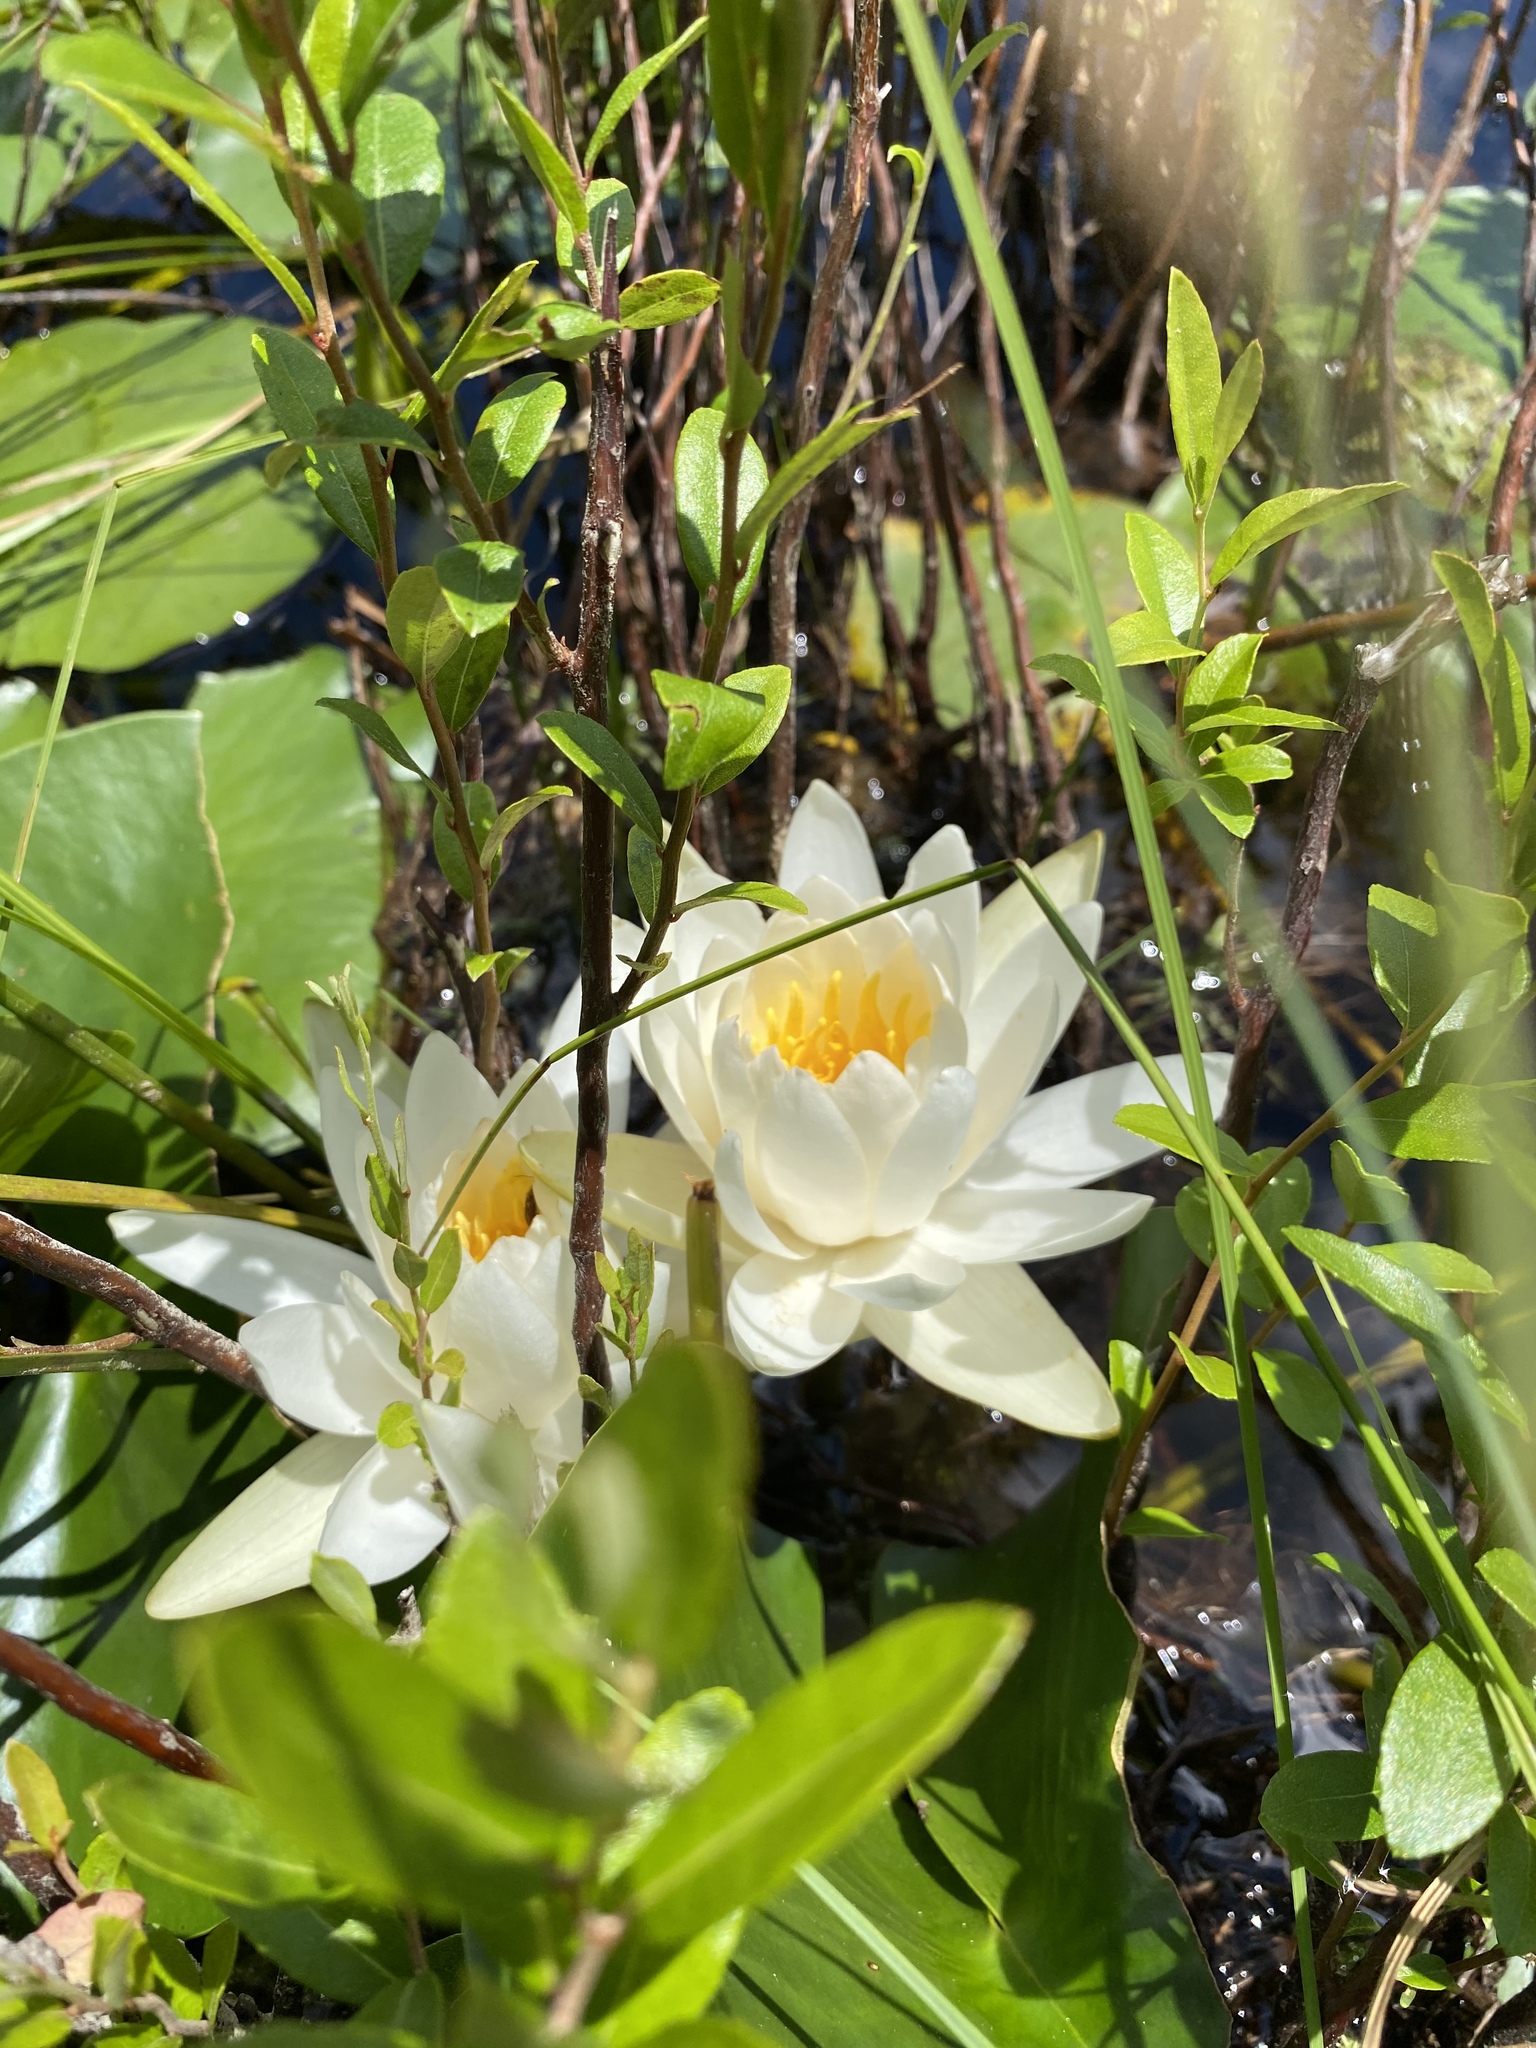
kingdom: Plantae
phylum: Tracheophyta
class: Magnoliopsida
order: Nymphaeales
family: Nymphaeaceae
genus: Nymphaea
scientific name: Nymphaea odorata
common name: Fragrant water-lily
